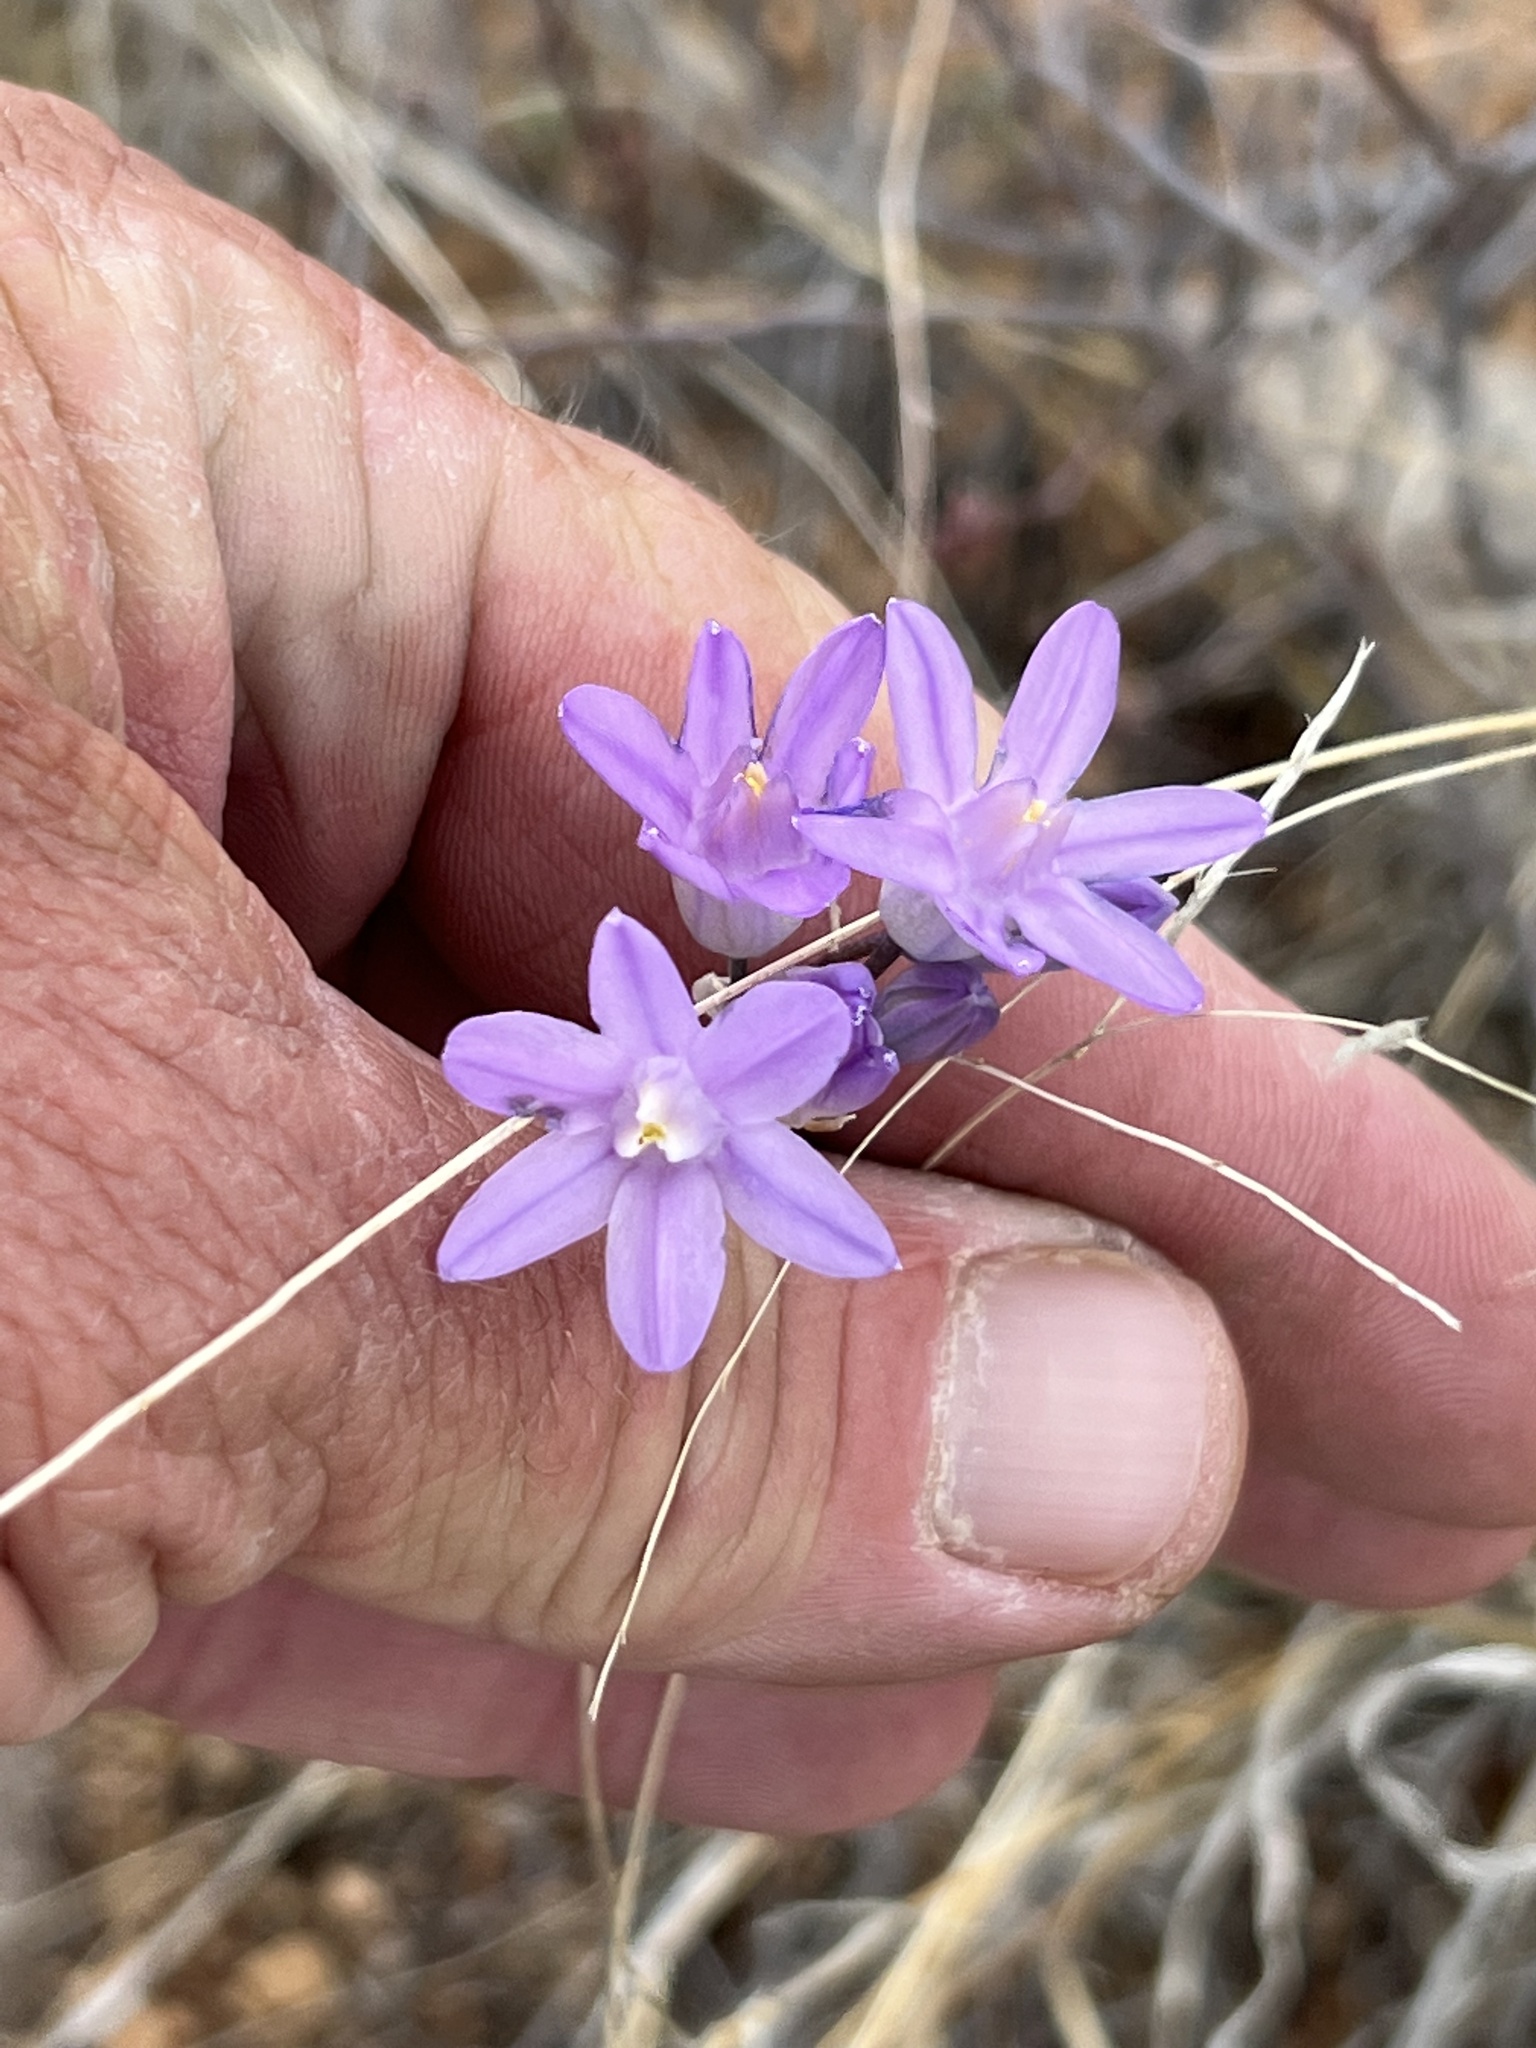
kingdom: Plantae
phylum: Tracheophyta
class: Liliopsida
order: Asparagales
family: Asparagaceae
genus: Dipterostemon
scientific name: Dipterostemon capitatus
